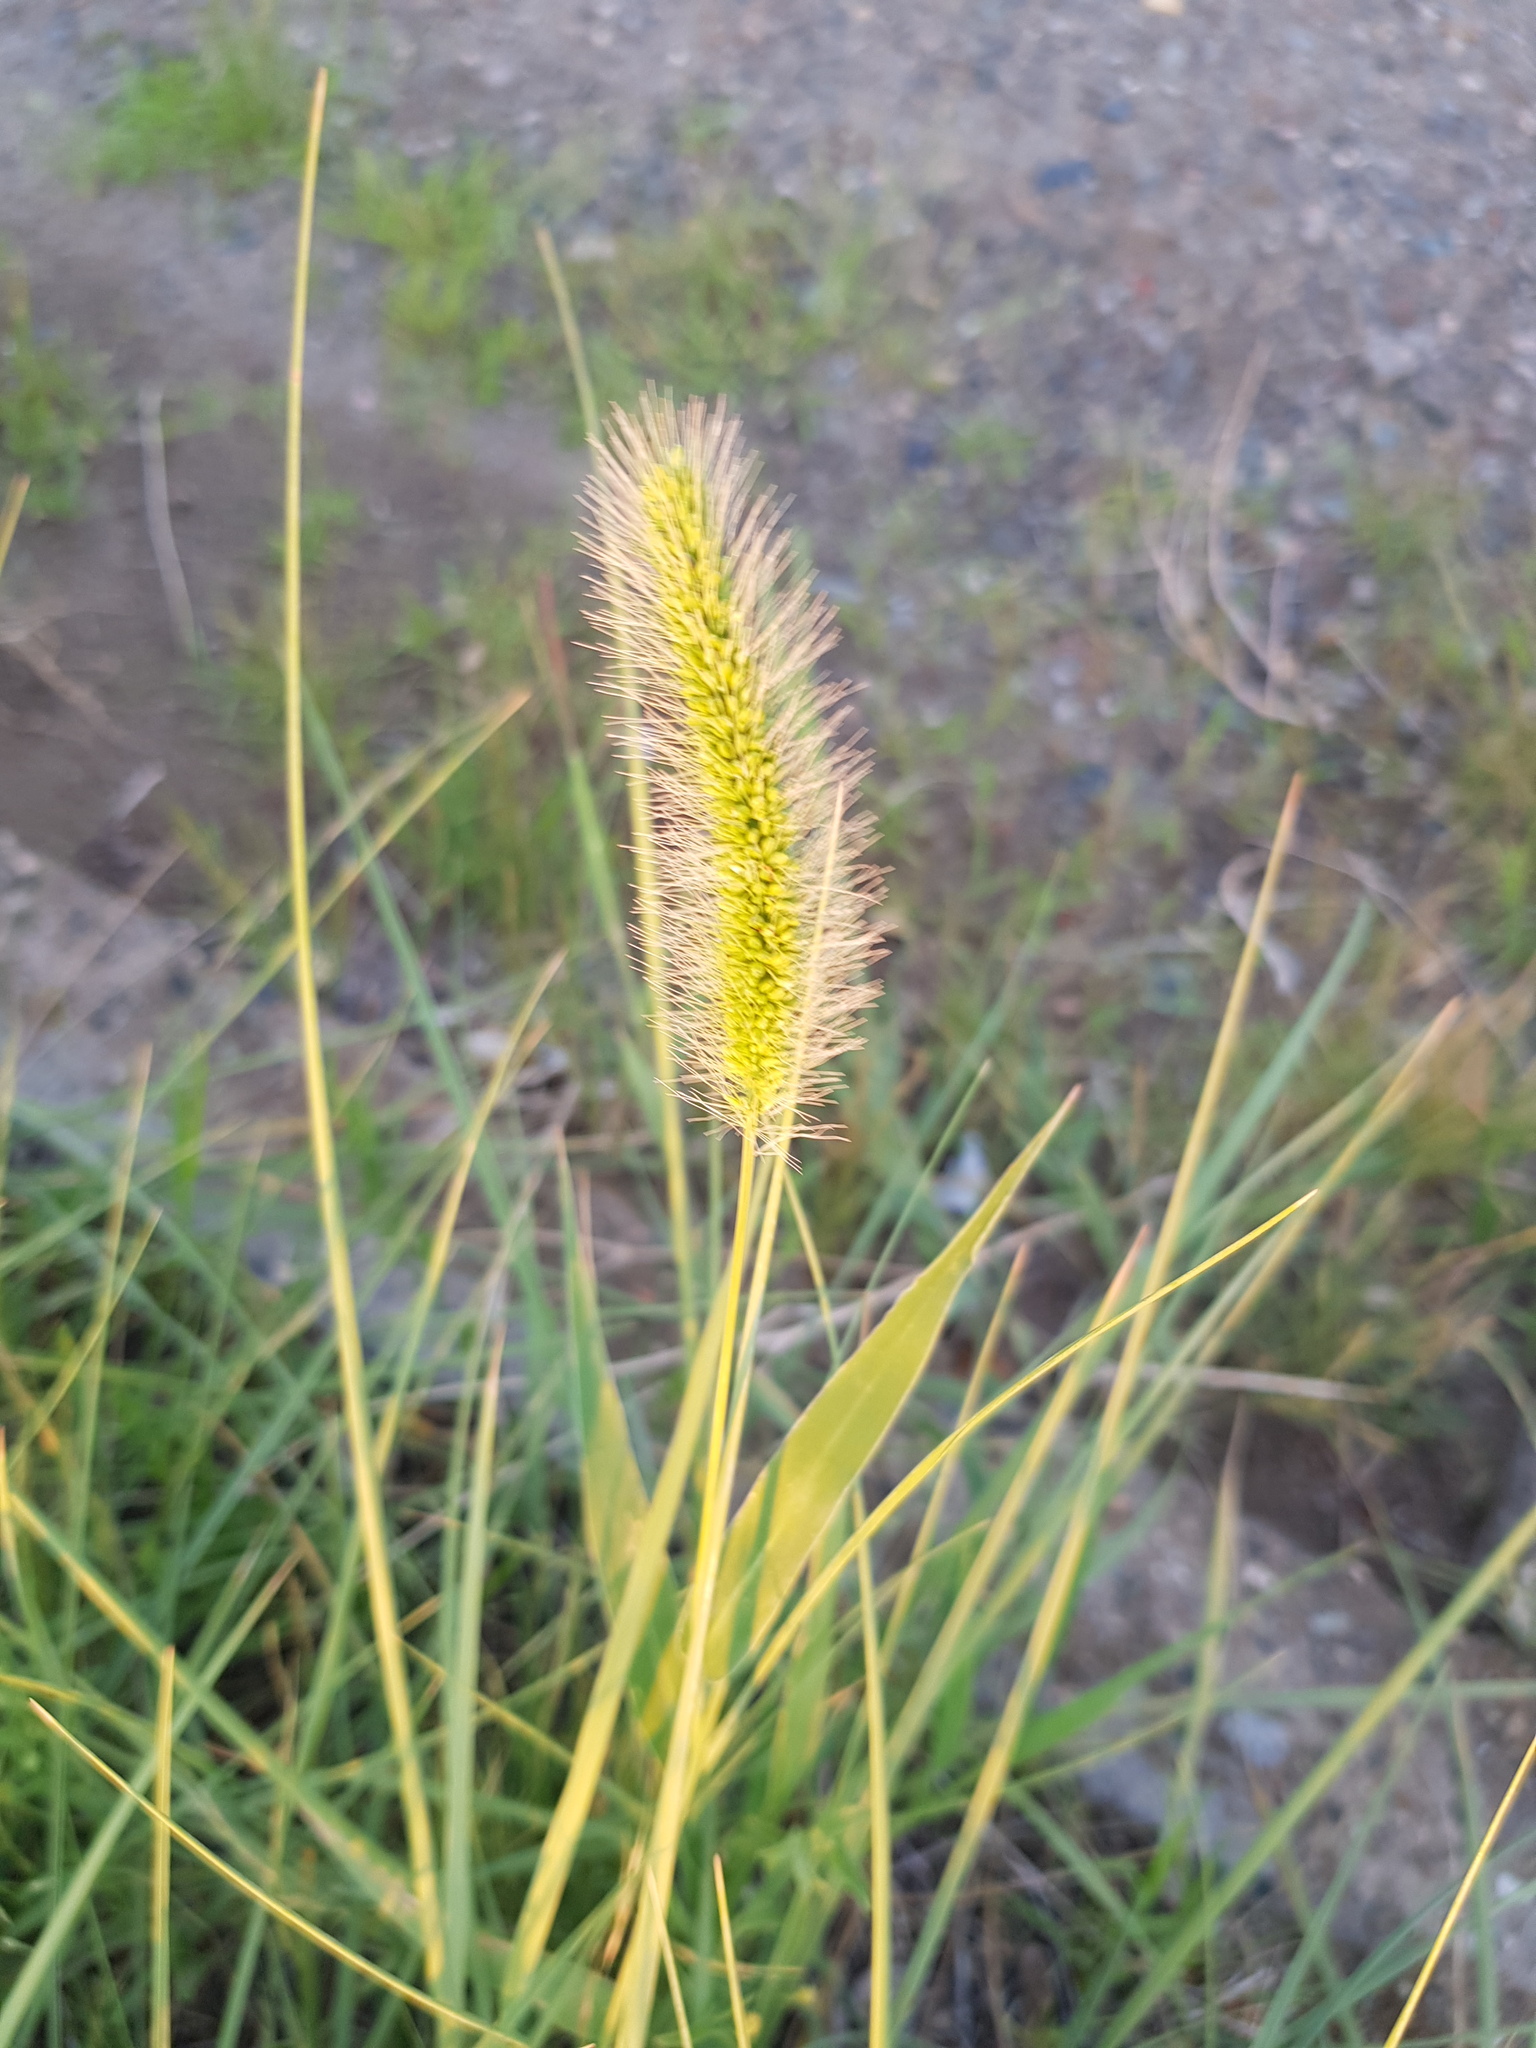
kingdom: Plantae
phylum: Tracheophyta
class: Liliopsida
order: Poales
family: Poaceae
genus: Setaria
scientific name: Setaria viridis
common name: Green bristlegrass
